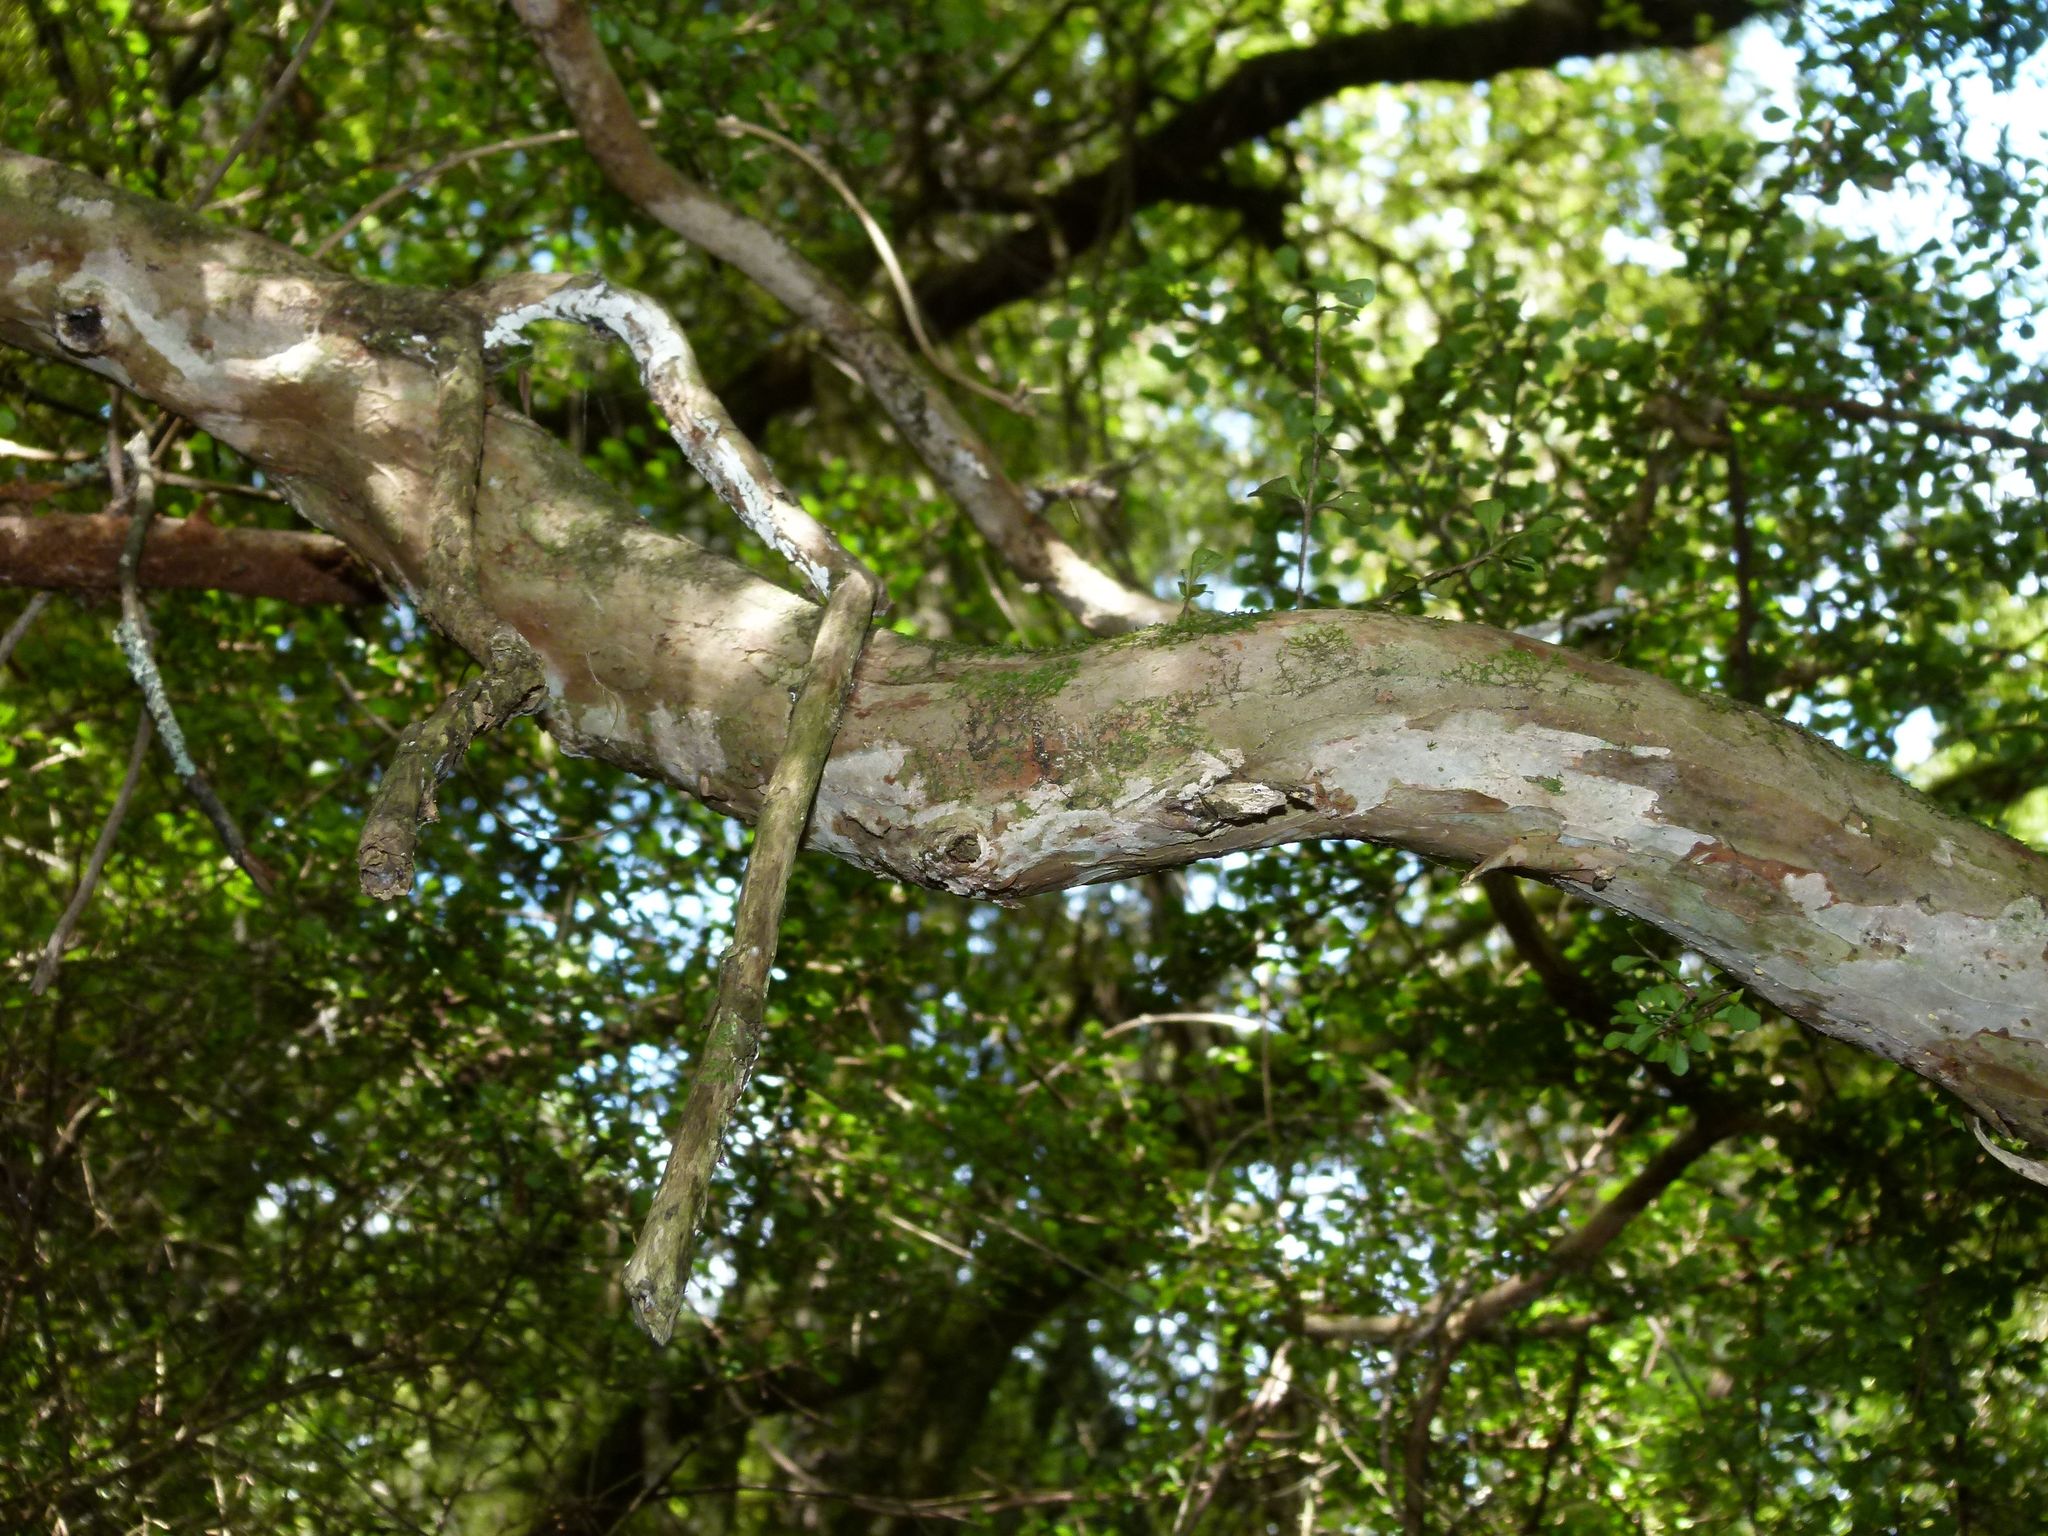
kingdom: Plantae
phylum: Tracheophyta
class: Magnoliopsida
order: Myrtales
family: Myrtaceae
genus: Lophomyrtus
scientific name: Lophomyrtus obcordata
